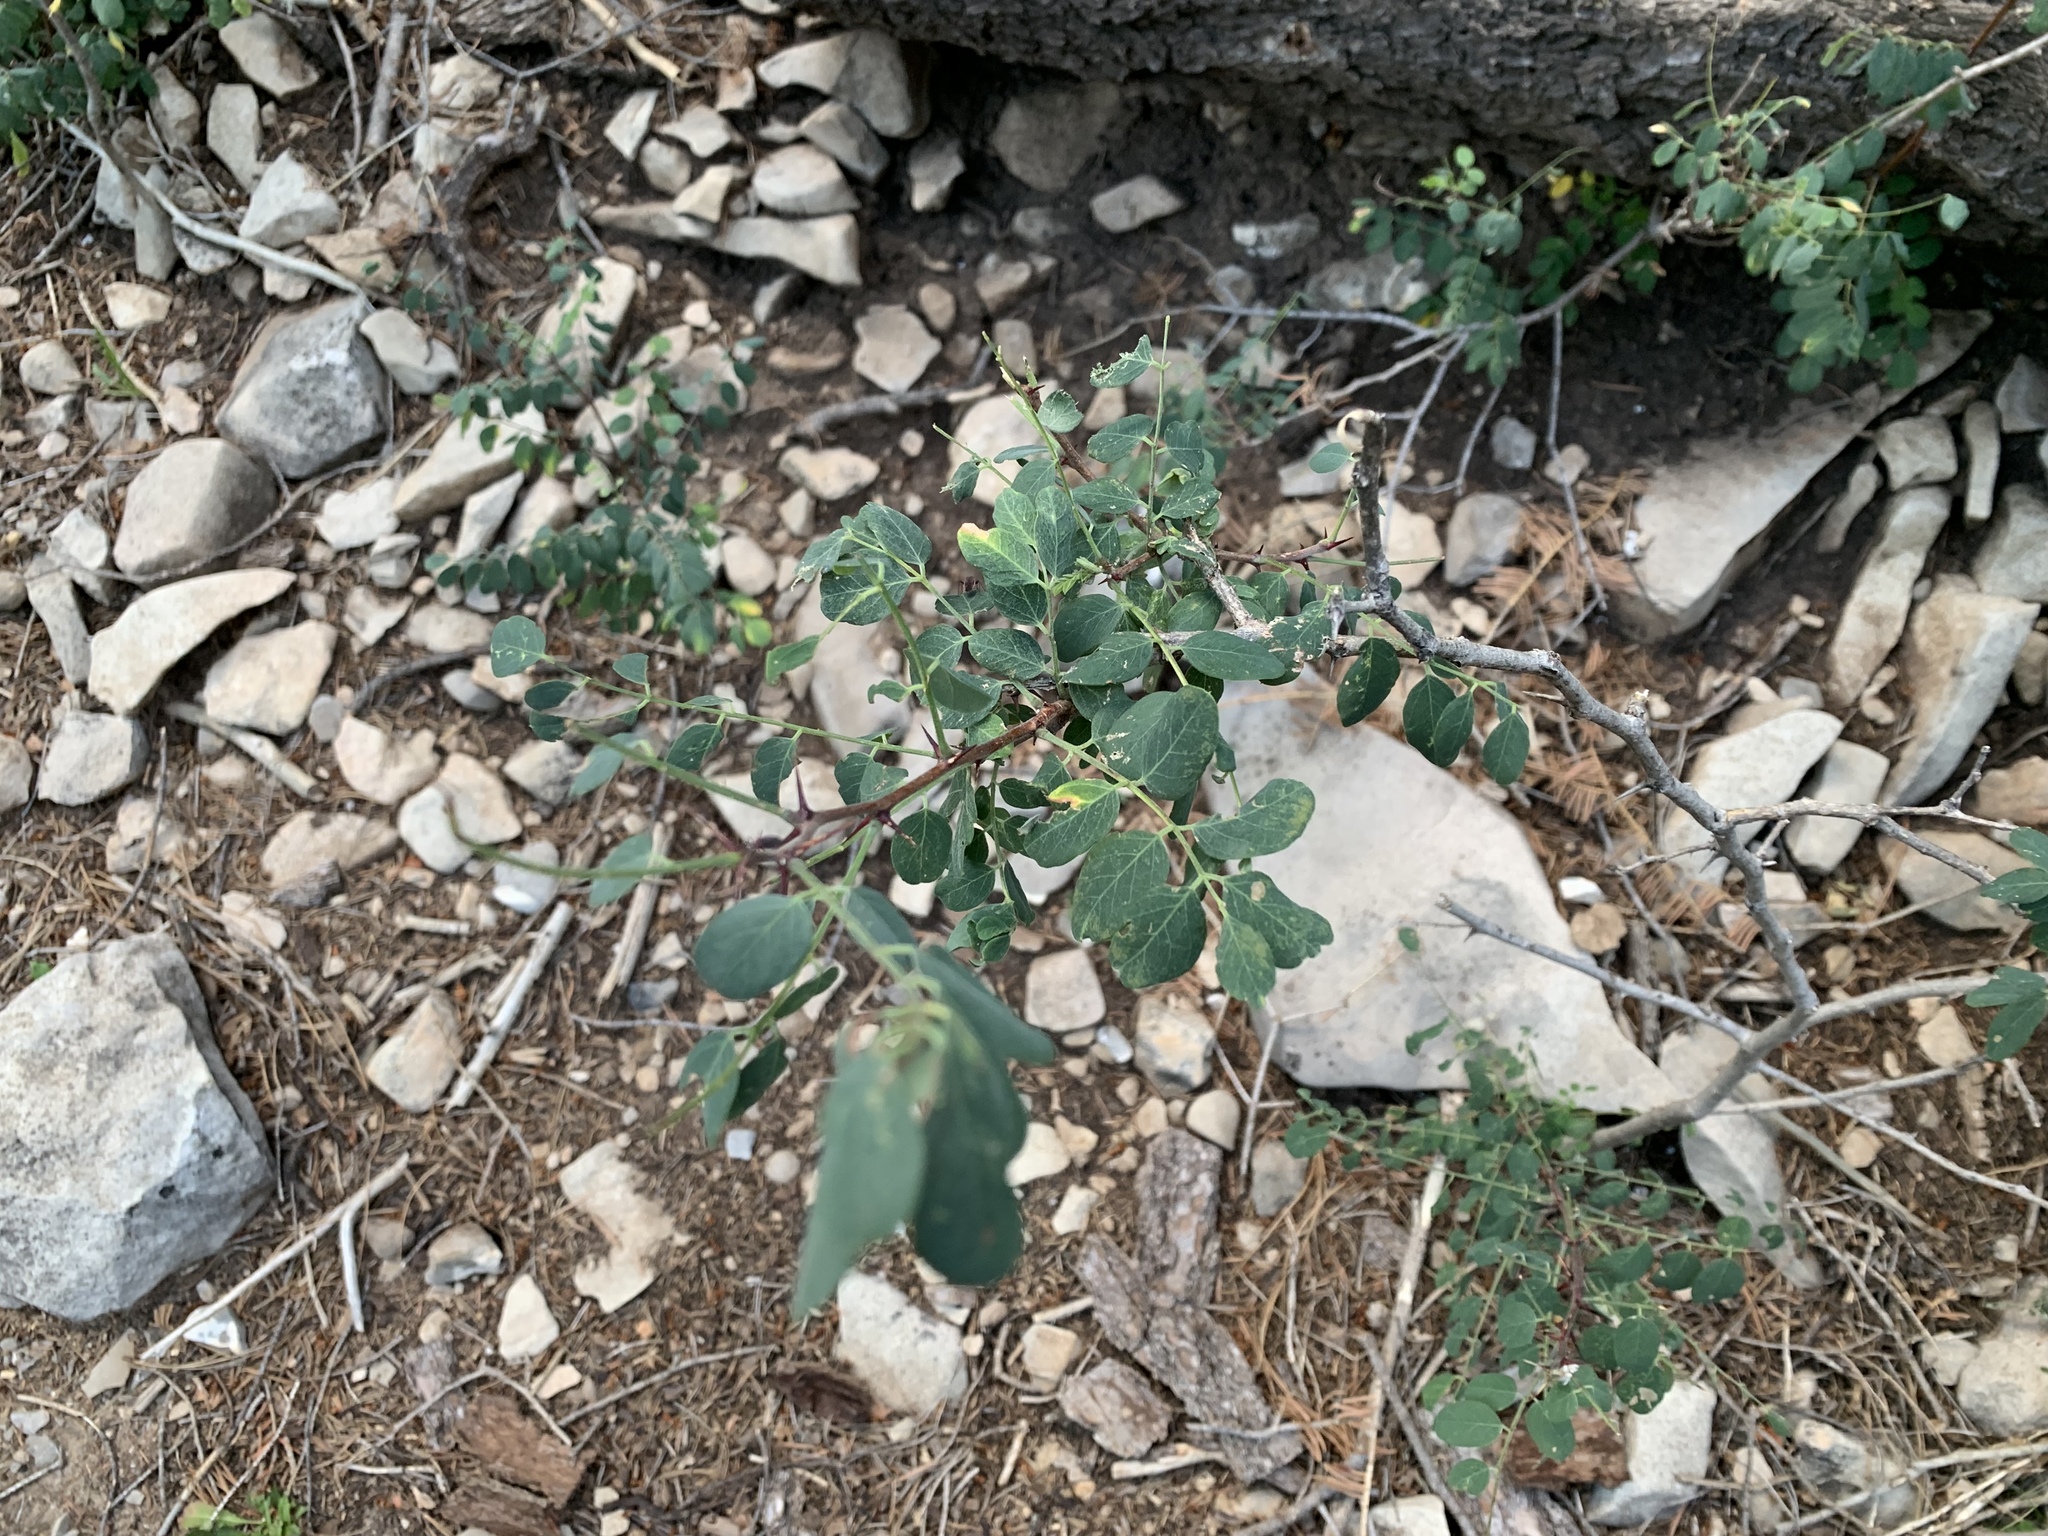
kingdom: Plantae
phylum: Tracheophyta
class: Magnoliopsida
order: Fabales
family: Fabaceae
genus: Robinia
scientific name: Robinia neomexicana
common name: New mexico locust
